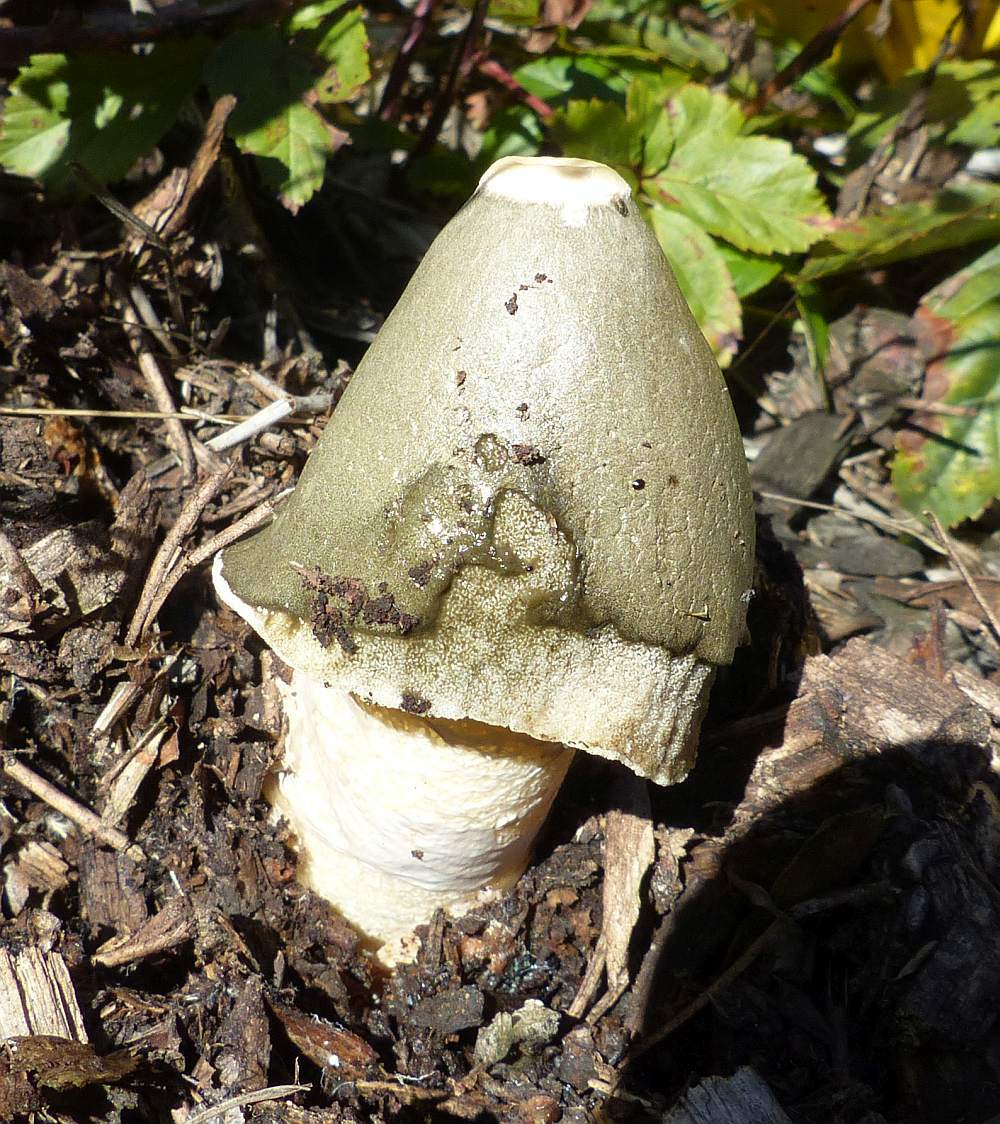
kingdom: Fungi
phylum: Basidiomycota
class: Agaricomycetes
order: Phallales
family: Phallaceae
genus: Phallus
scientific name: Phallus ravenelii
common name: Ravenel's stinkhorn
